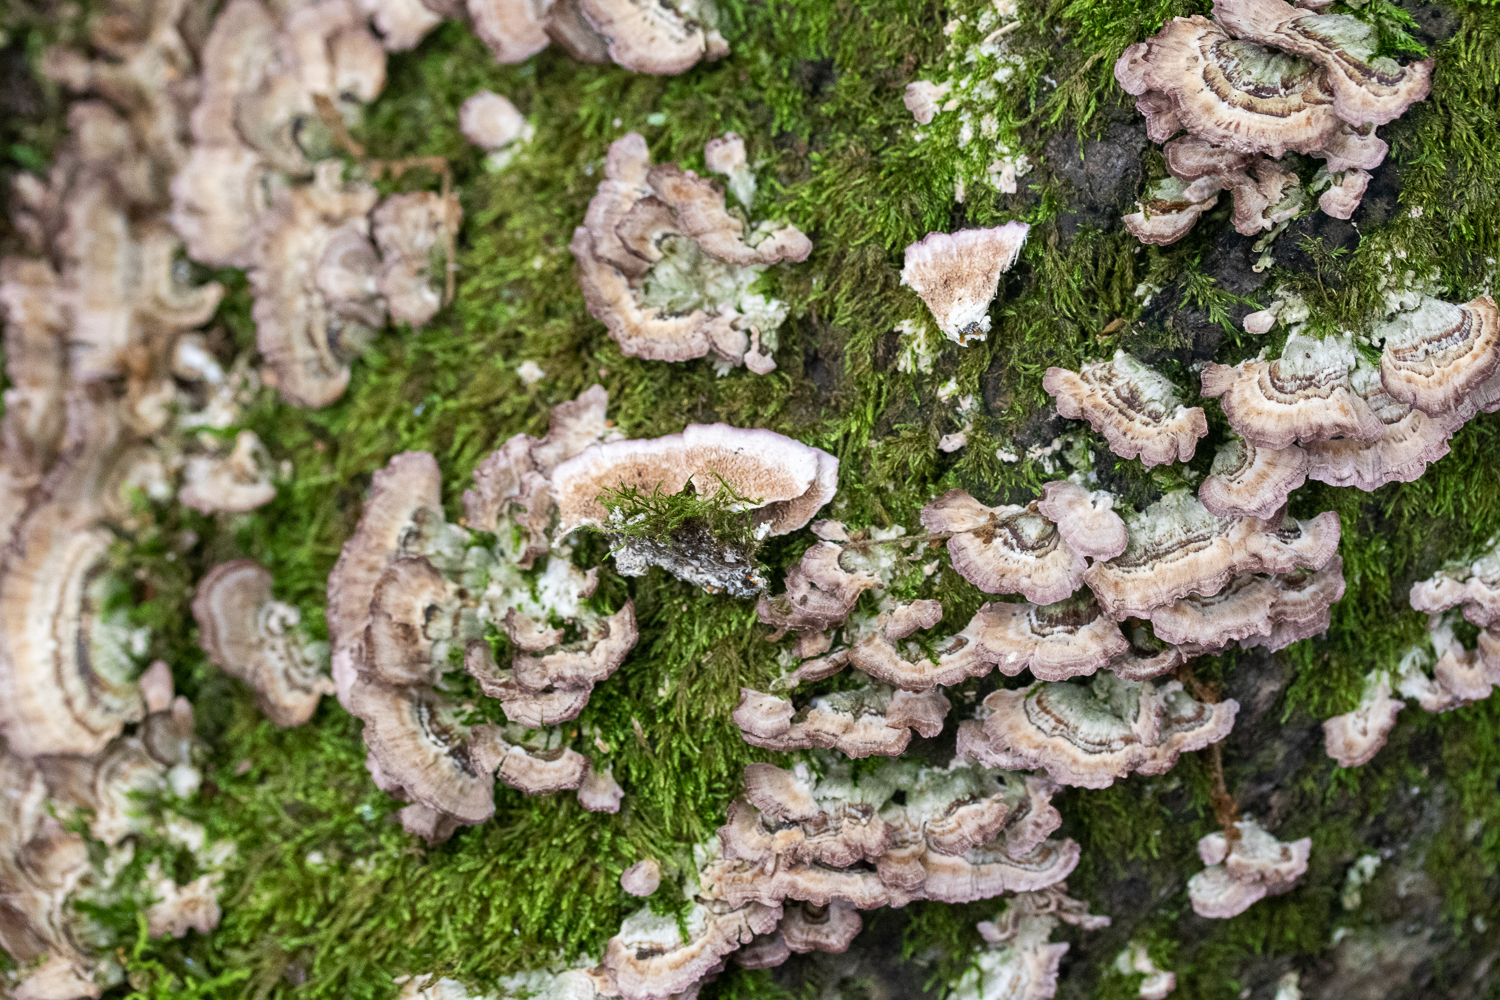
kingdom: Fungi
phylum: Basidiomycota
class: Agaricomycetes
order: Hymenochaetales
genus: Trichaptum
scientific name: Trichaptum biforme
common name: Violet-toothed polypore
